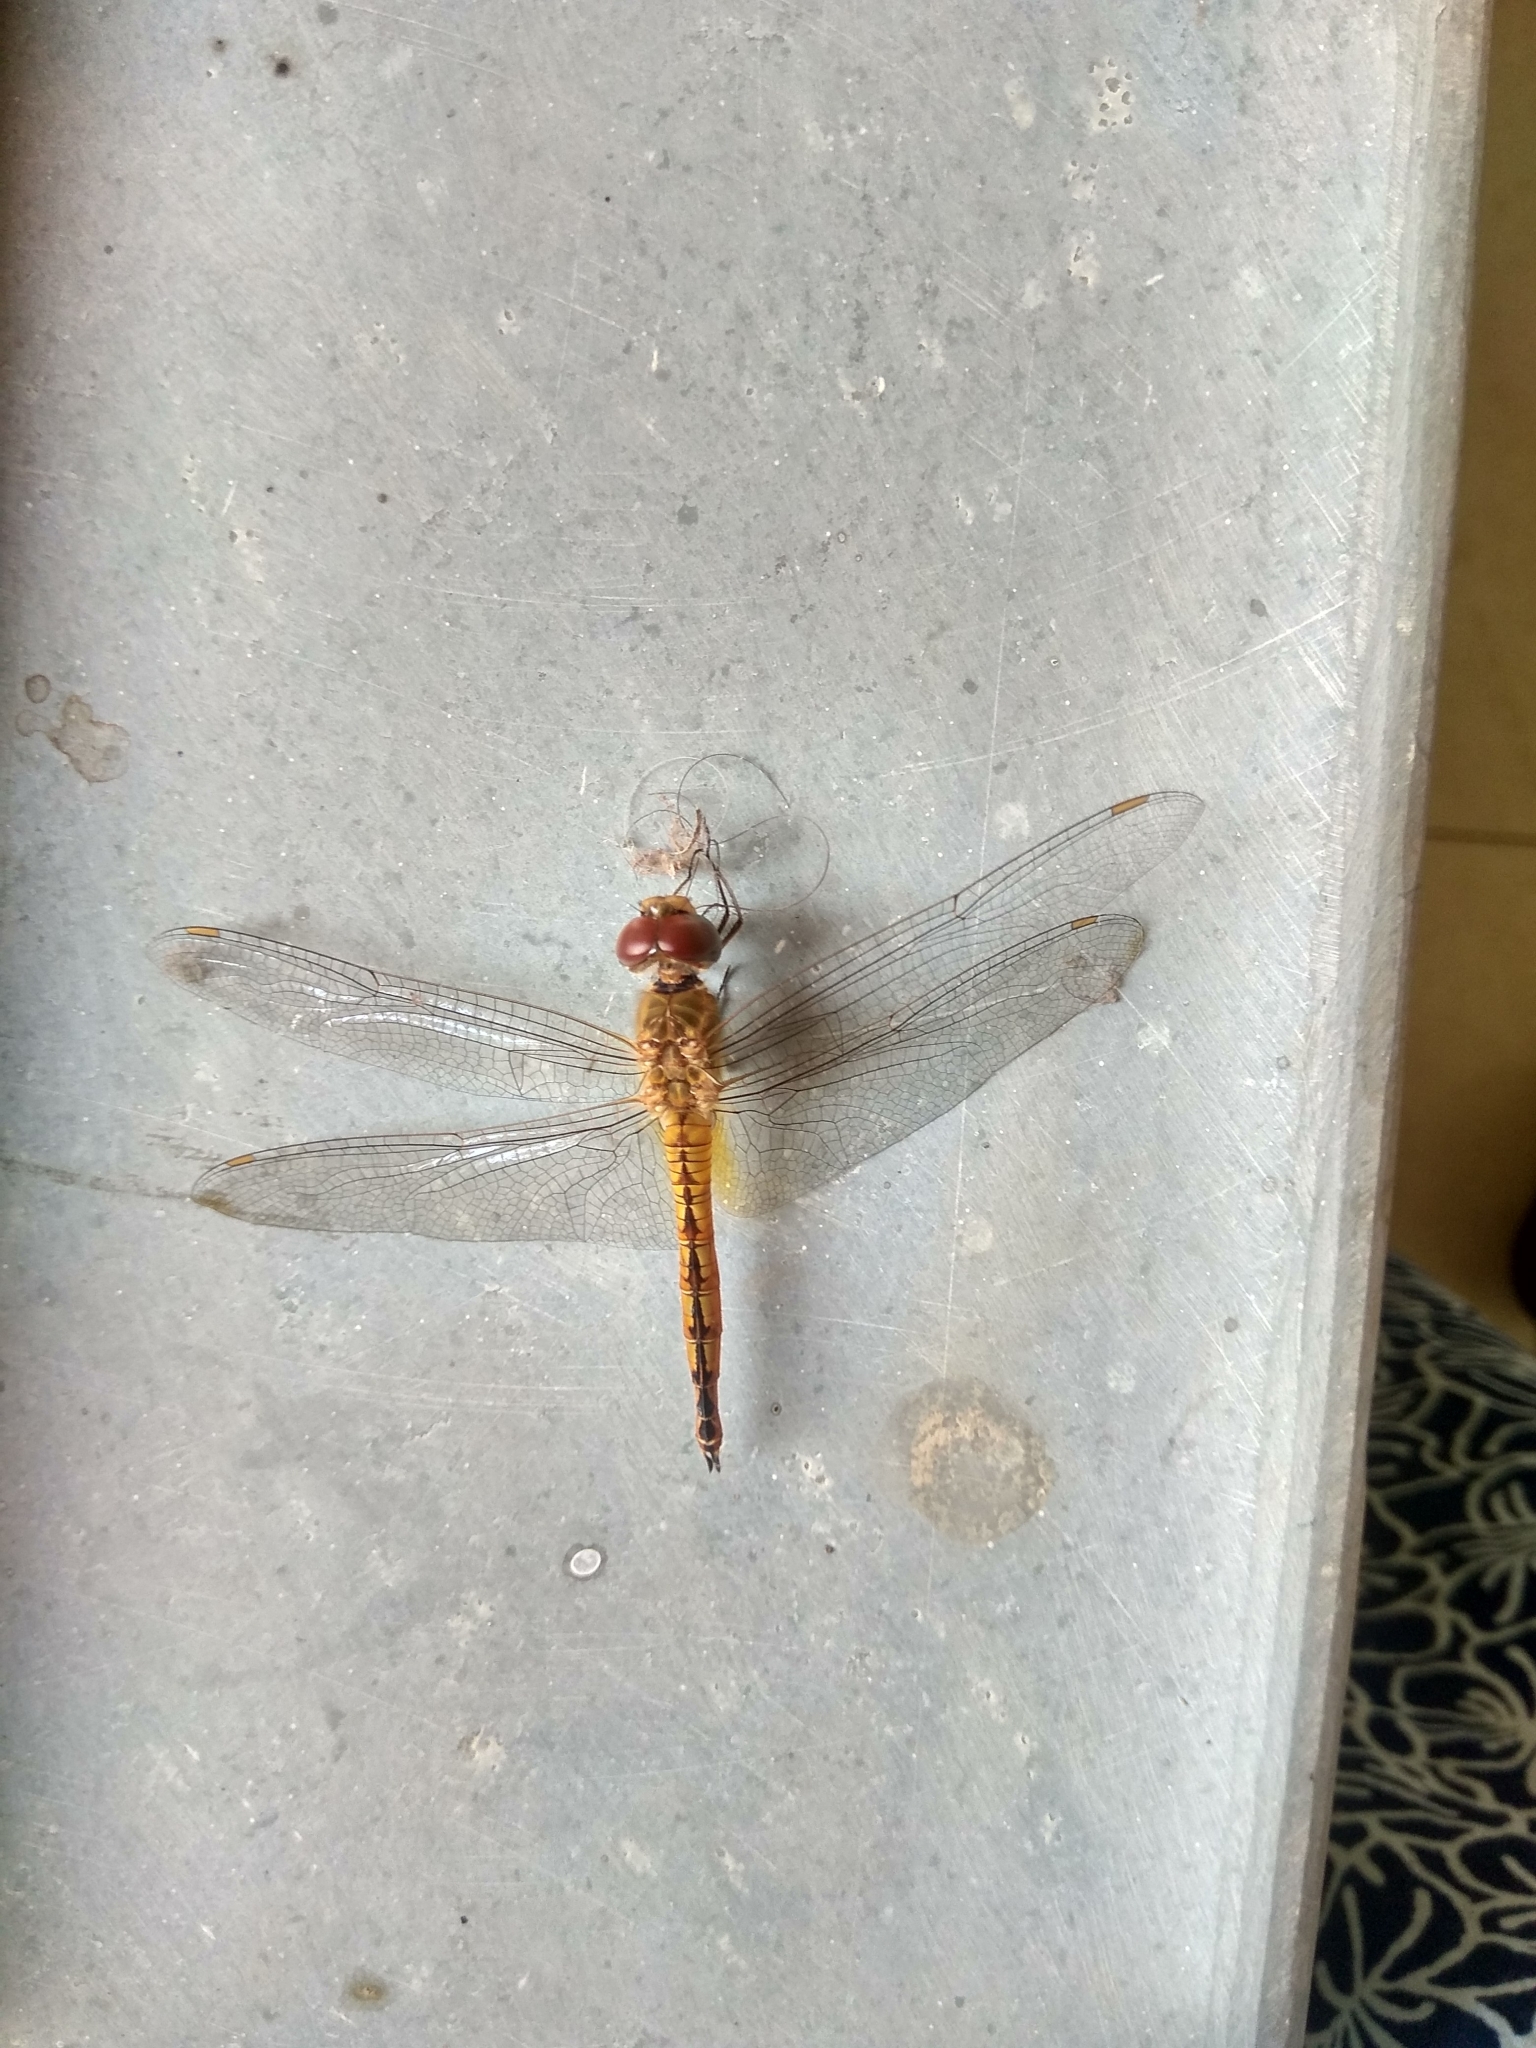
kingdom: Animalia
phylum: Arthropoda
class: Insecta
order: Odonata
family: Libellulidae
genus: Pantala
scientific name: Pantala flavescens
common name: Wandering glider
